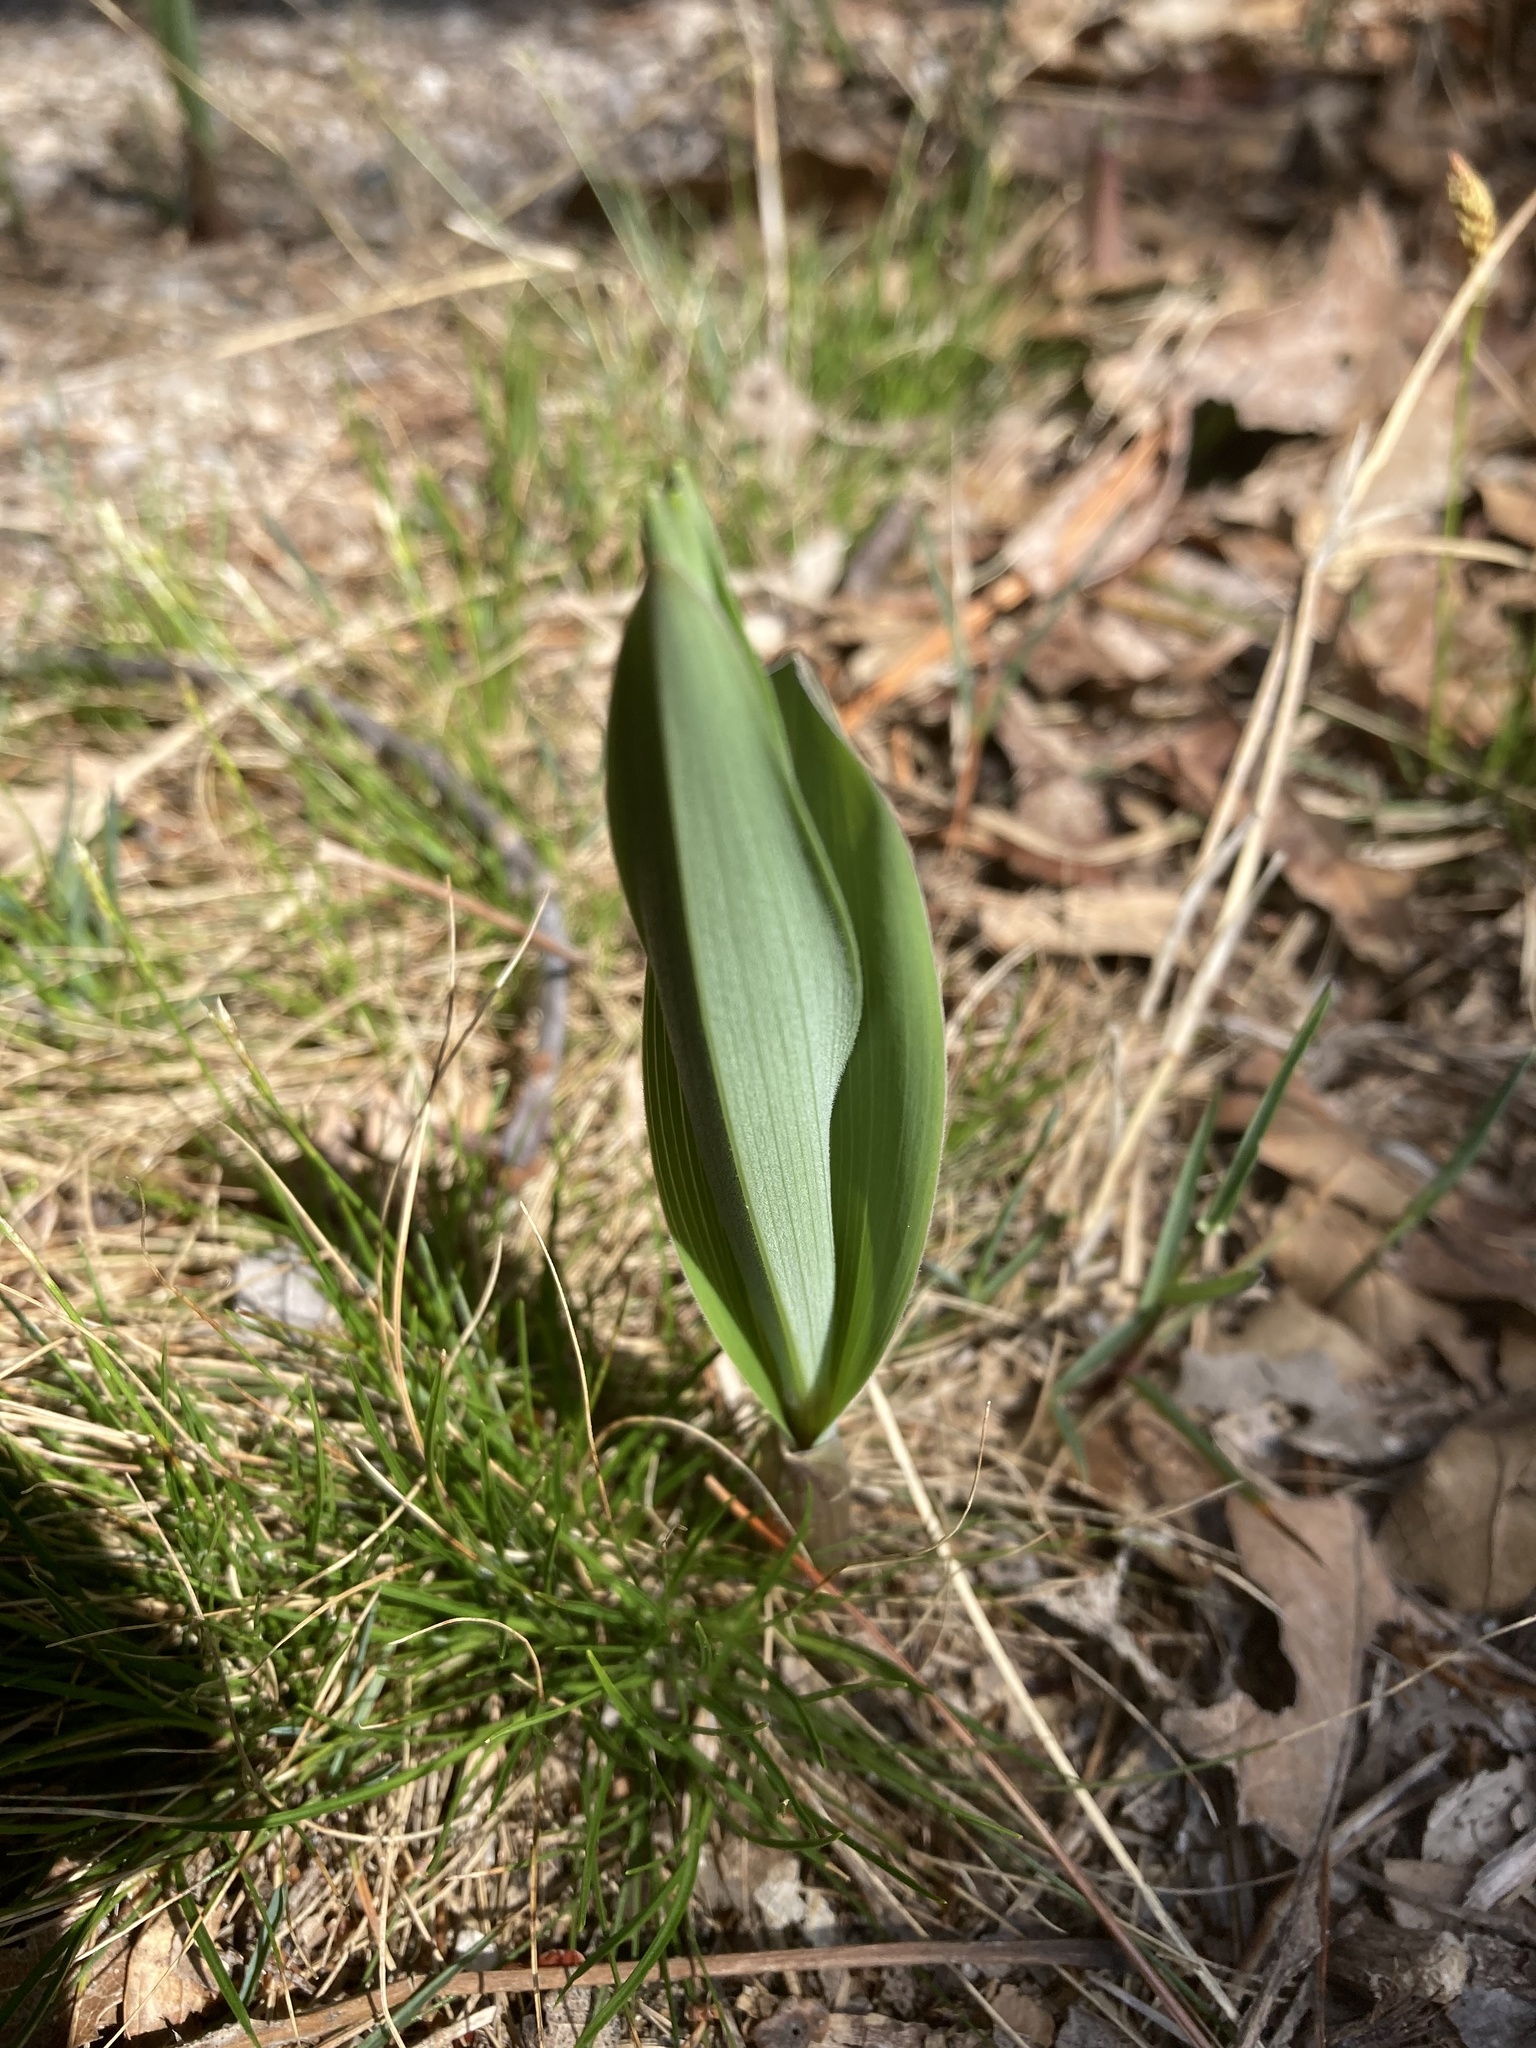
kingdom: Plantae
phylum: Tracheophyta
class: Liliopsida
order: Asparagales
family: Asparagaceae
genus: Maianthemum
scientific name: Maianthemum stellatum
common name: Little false solomon's seal
